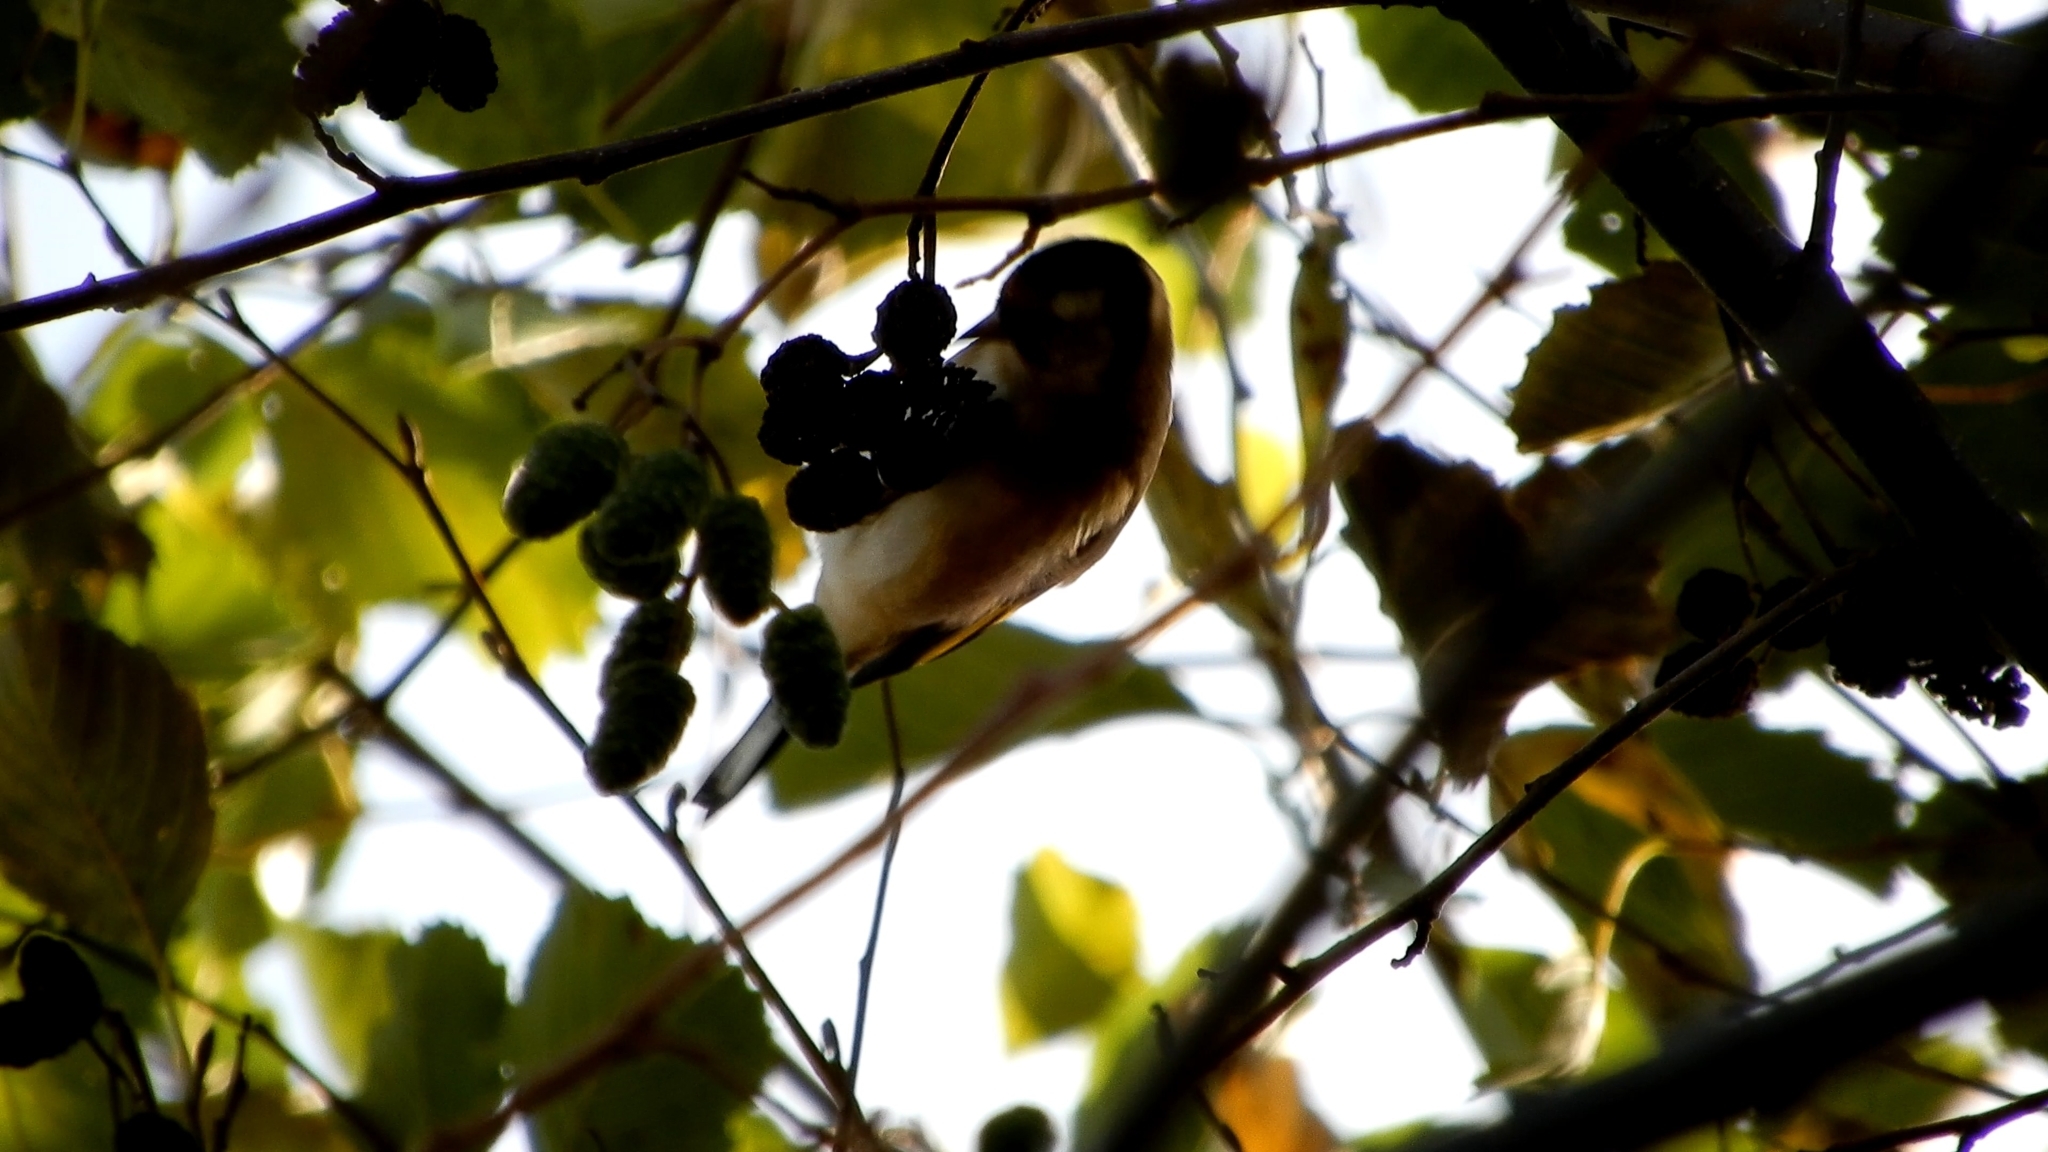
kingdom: Animalia
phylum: Chordata
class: Aves
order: Passeriformes
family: Fringillidae
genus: Carduelis
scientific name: Carduelis carduelis
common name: European goldfinch
